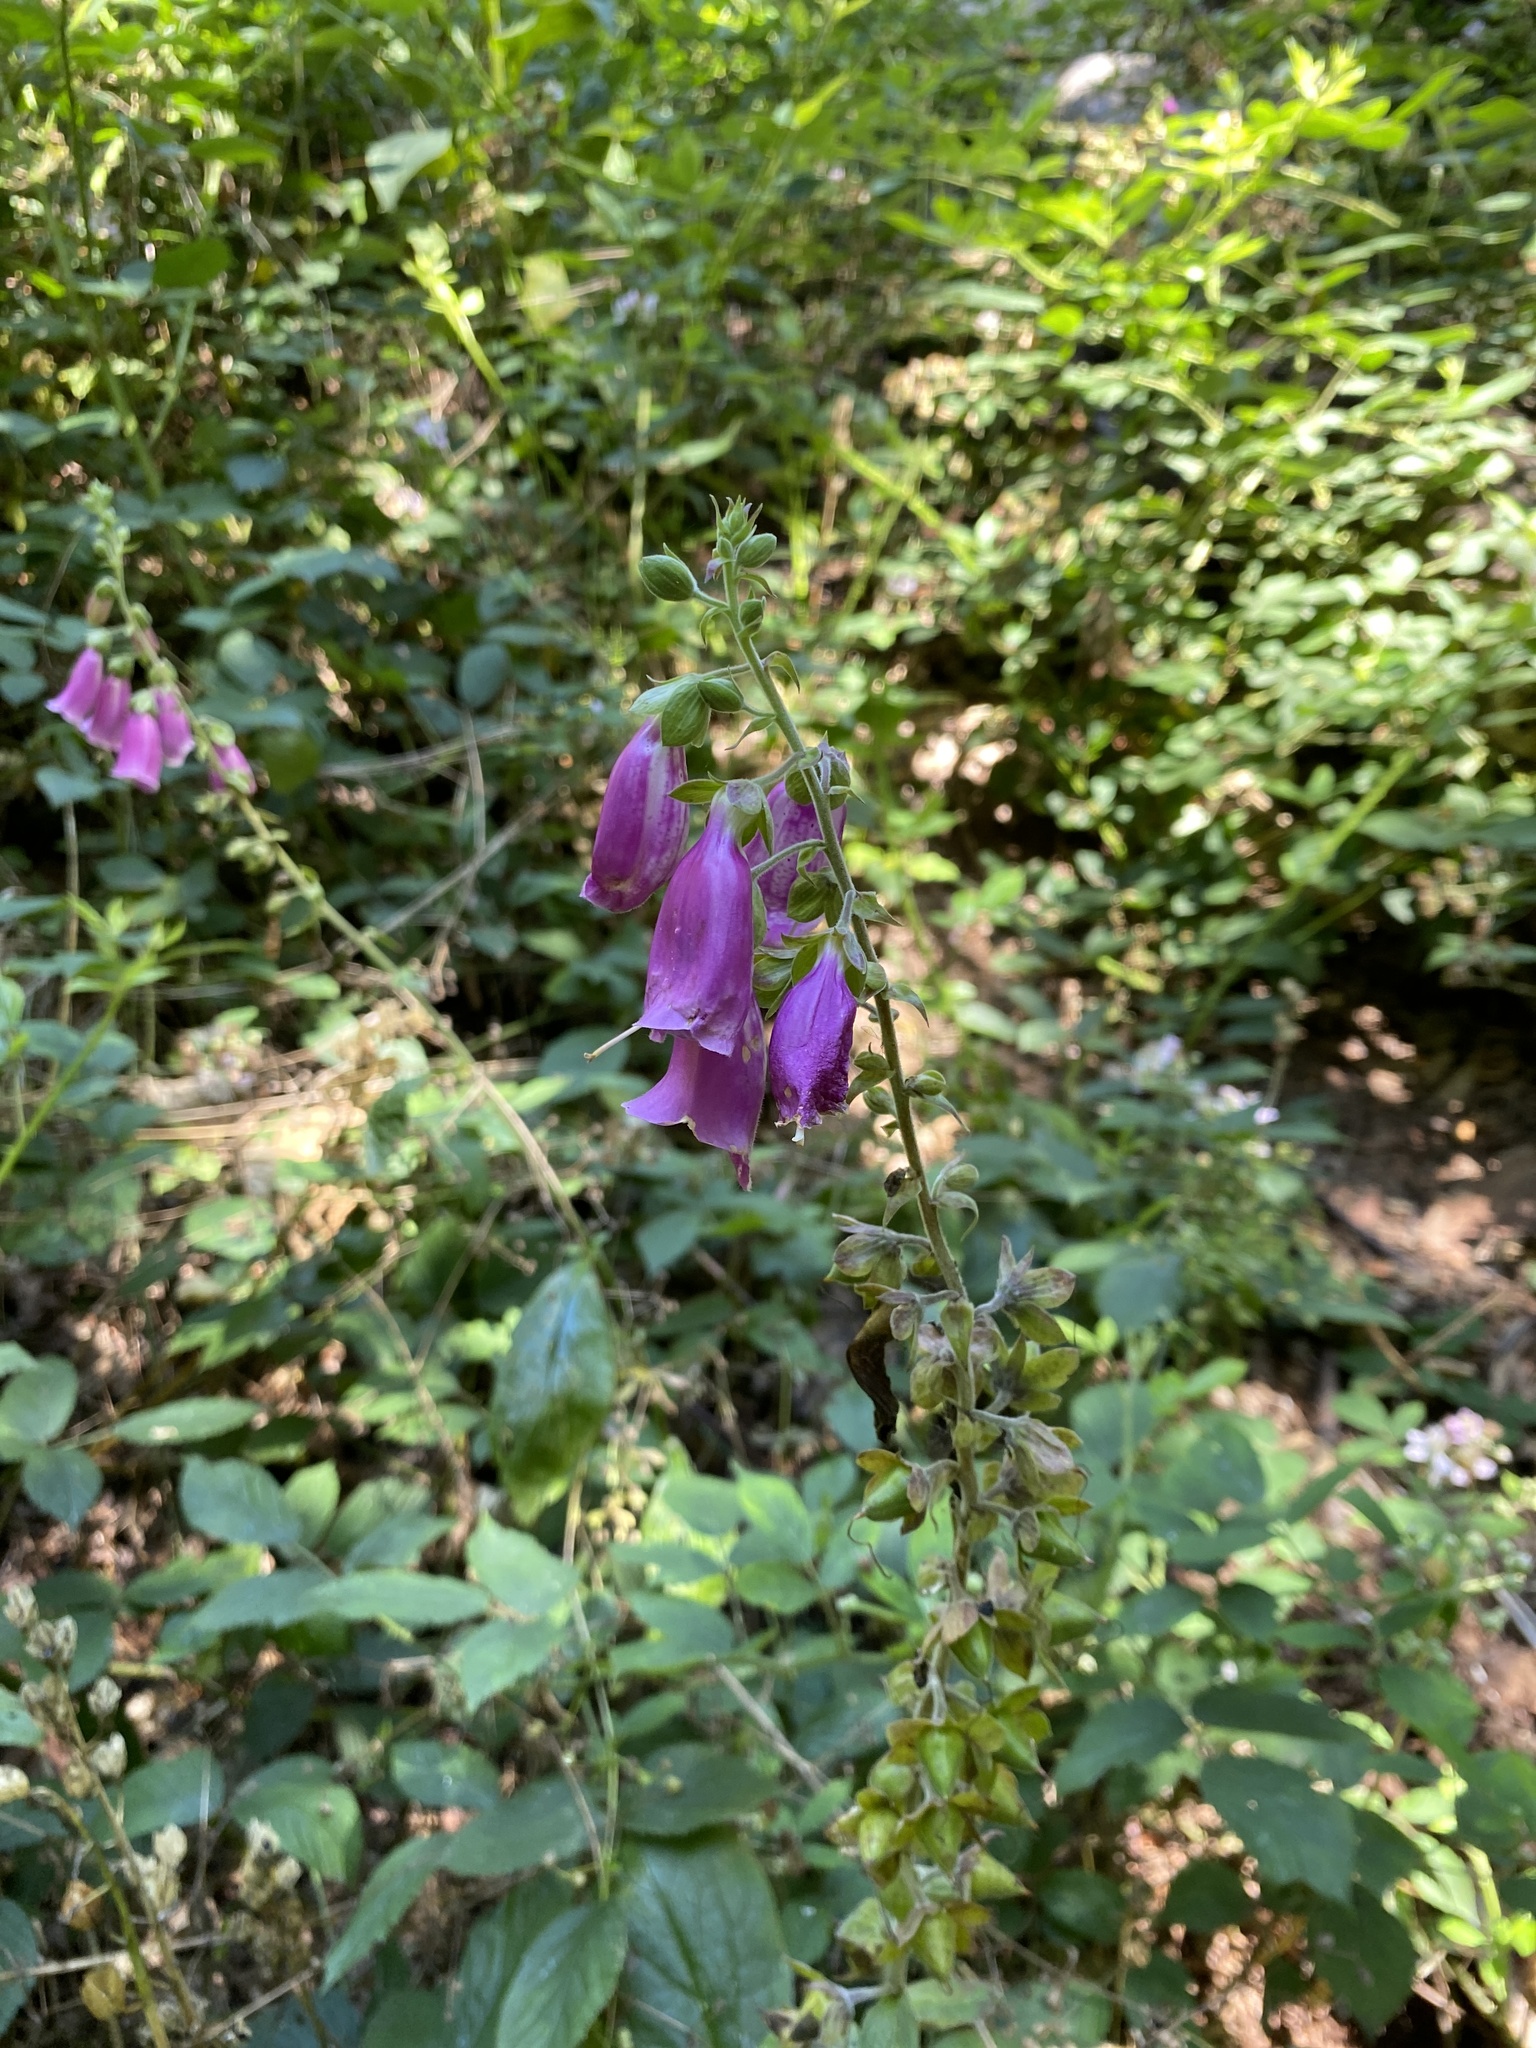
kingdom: Plantae
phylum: Tracheophyta
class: Magnoliopsida
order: Lamiales
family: Plantaginaceae
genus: Digitalis
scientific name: Digitalis purpurea
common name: Foxglove
